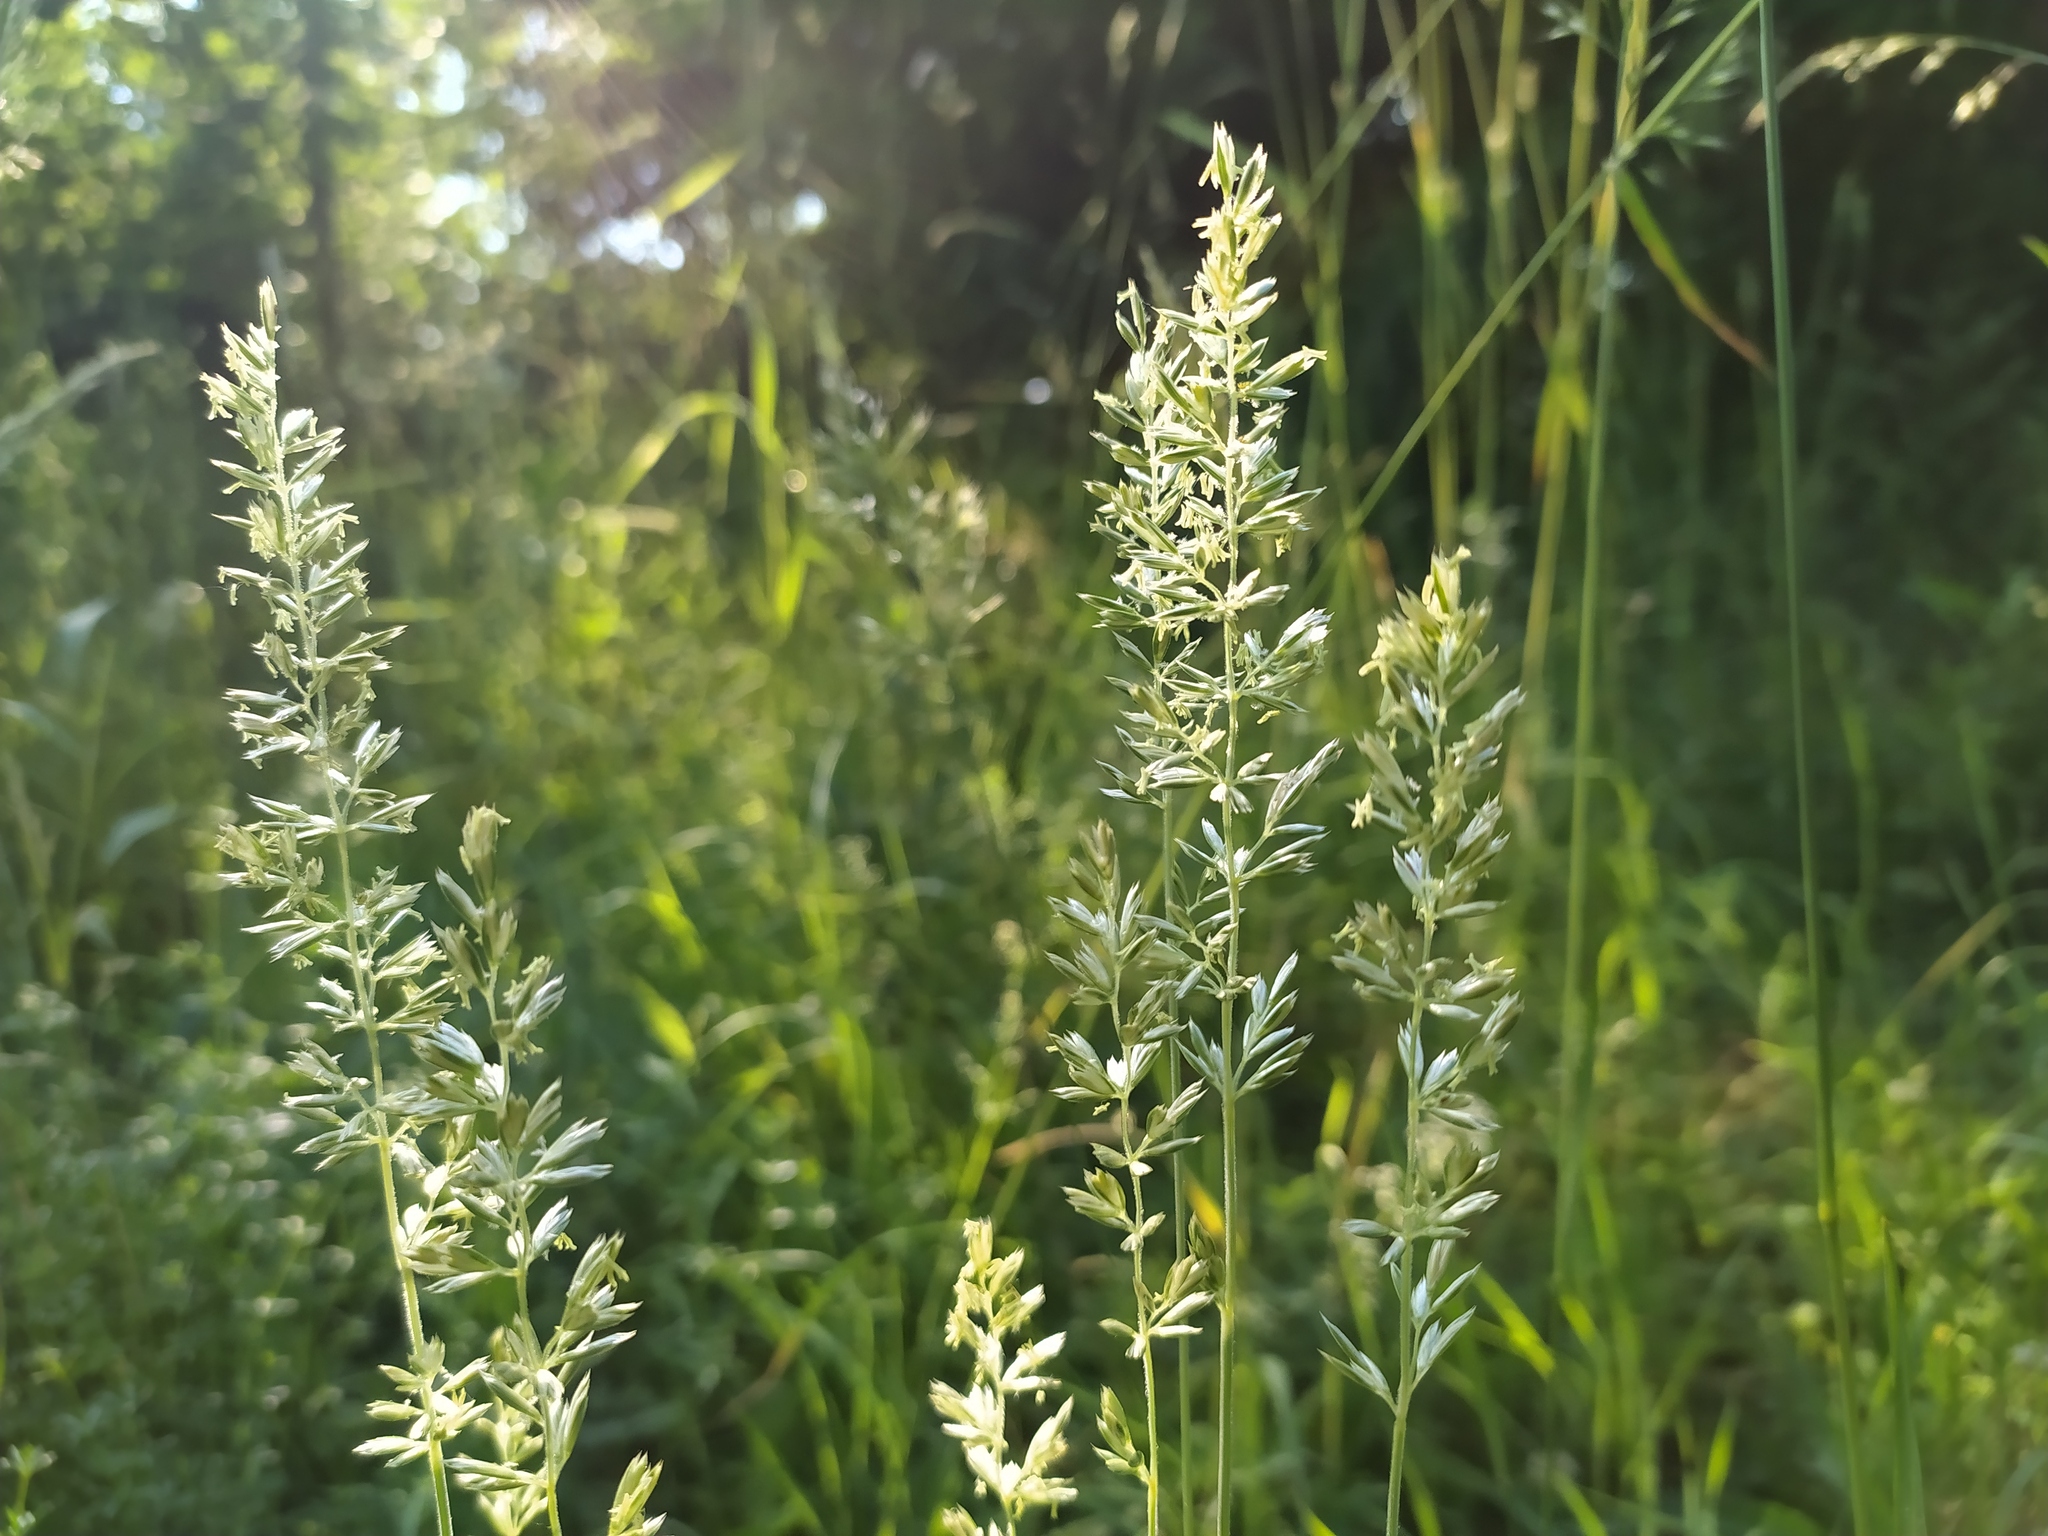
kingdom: Plantae
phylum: Tracheophyta
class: Liliopsida
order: Poales
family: Poaceae
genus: Koeleria
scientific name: Koeleria pyramidata
